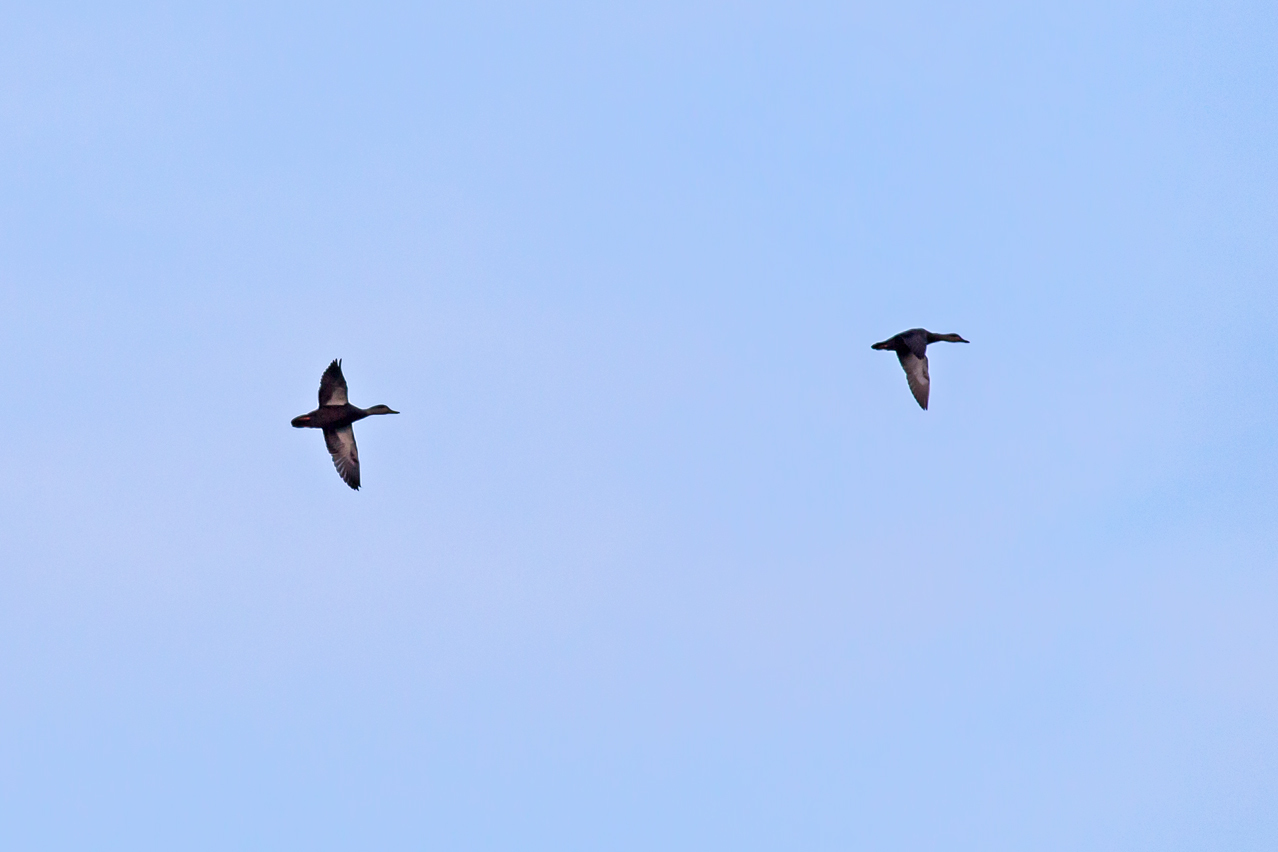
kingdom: Animalia
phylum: Chordata
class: Aves
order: Anseriformes
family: Anatidae
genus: Anas
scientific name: Anas rubripes
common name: American black duck
